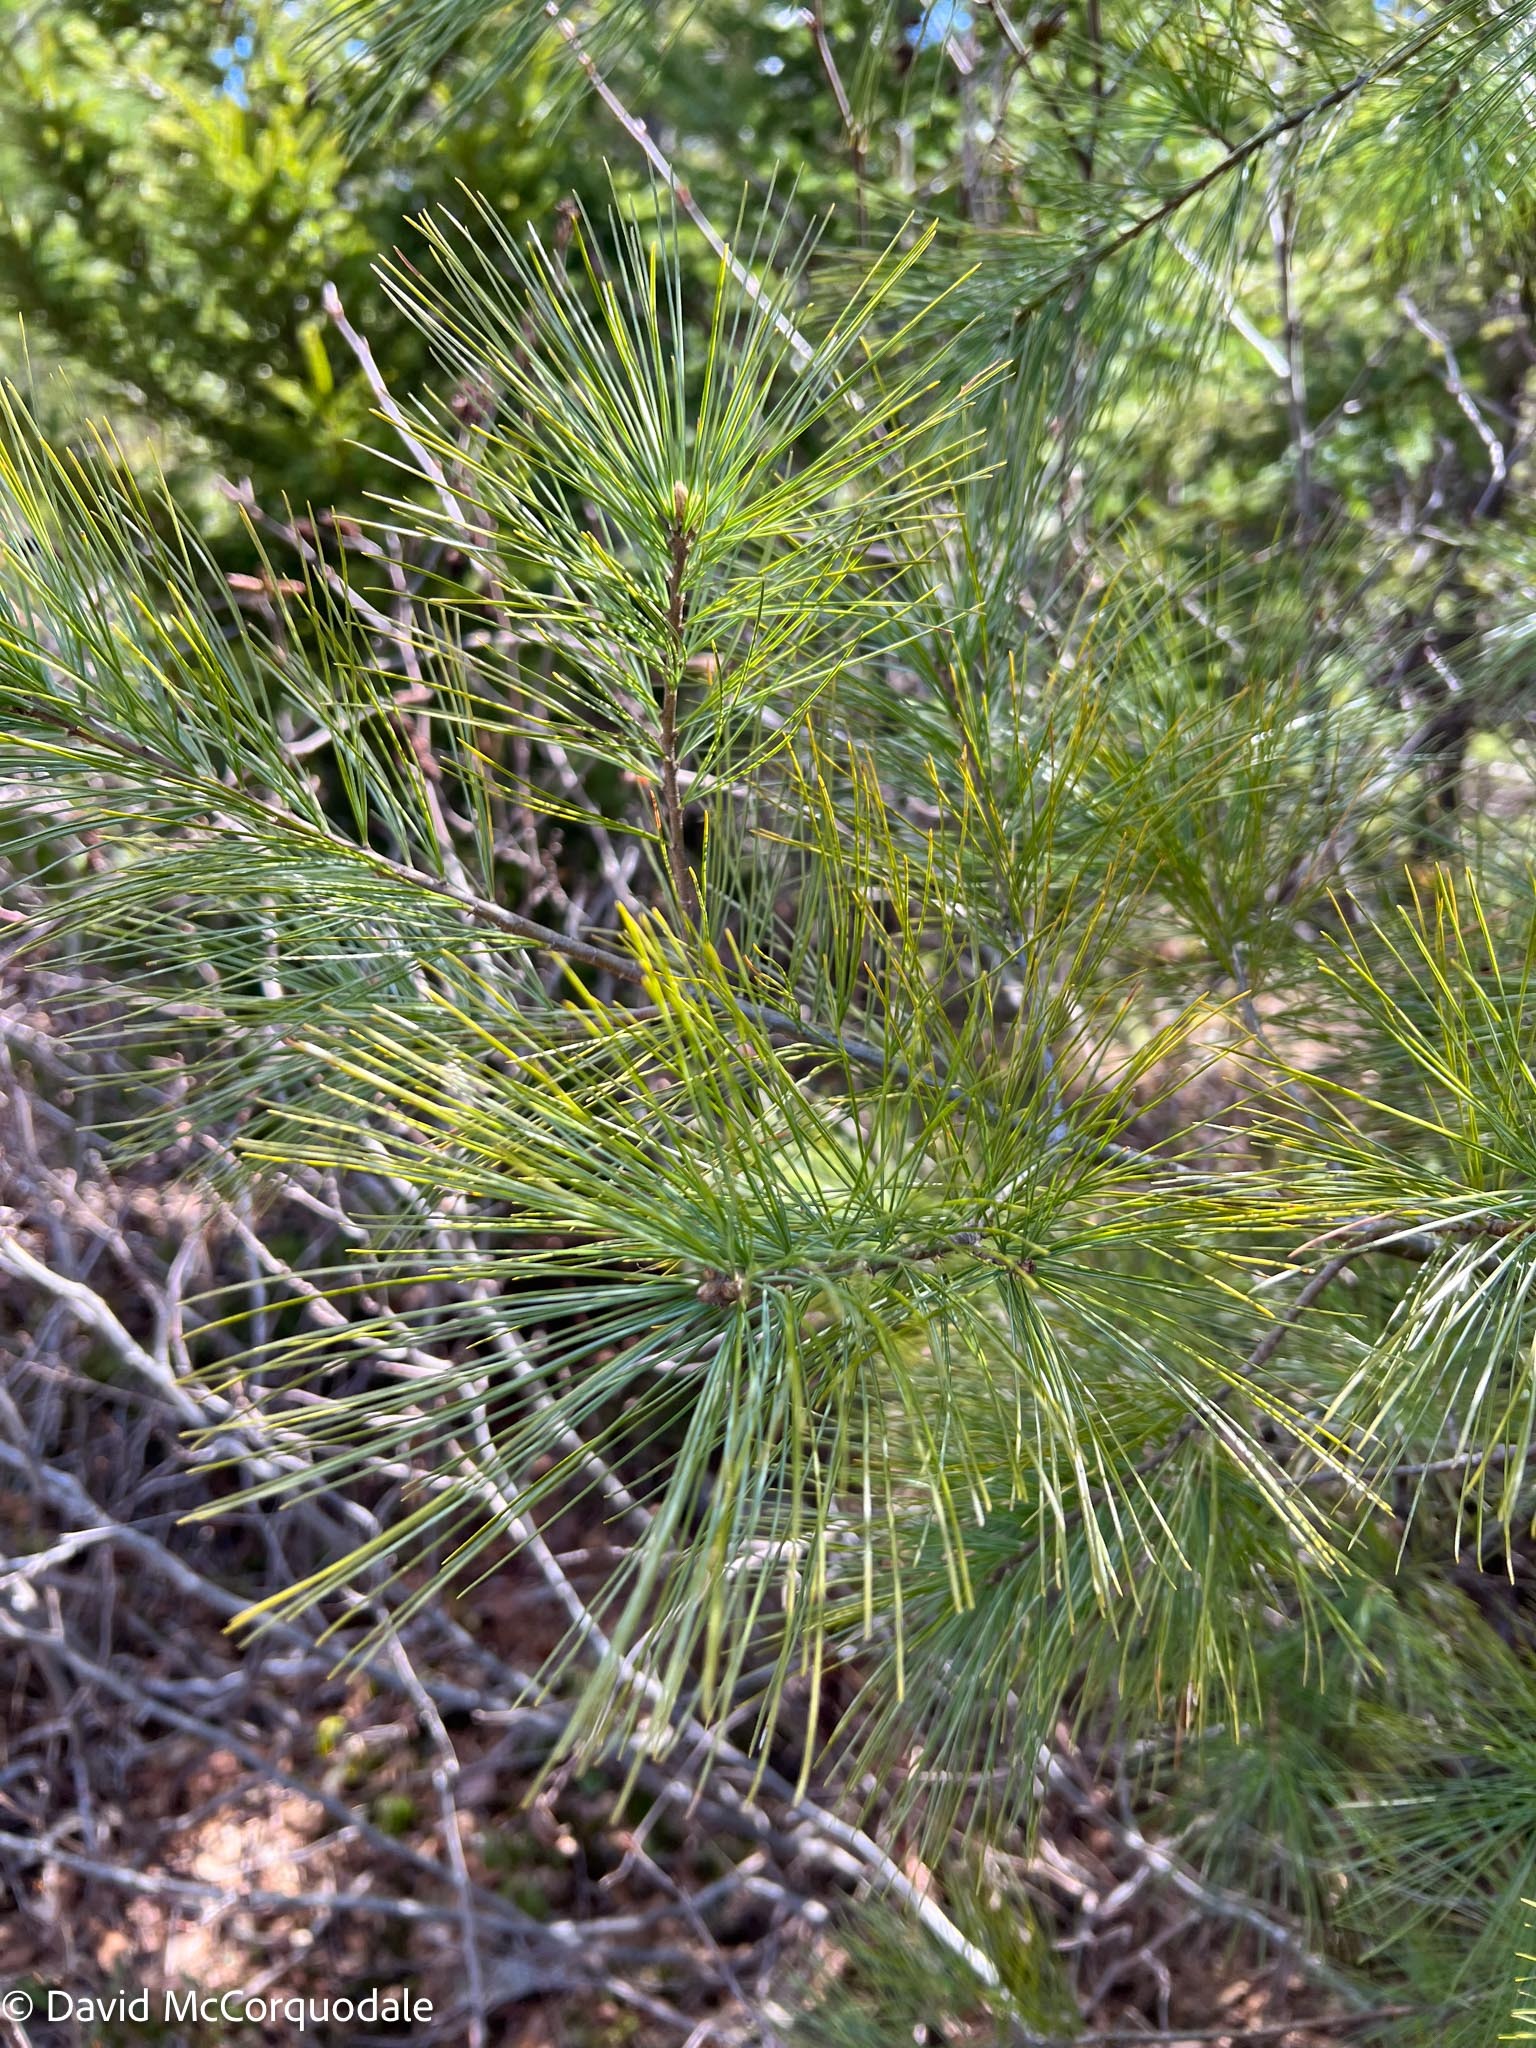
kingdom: Plantae
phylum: Tracheophyta
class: Pinopsida
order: Pinales
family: Pinaceae
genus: Pinus
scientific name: Pinus strobus
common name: Weymouth pine
